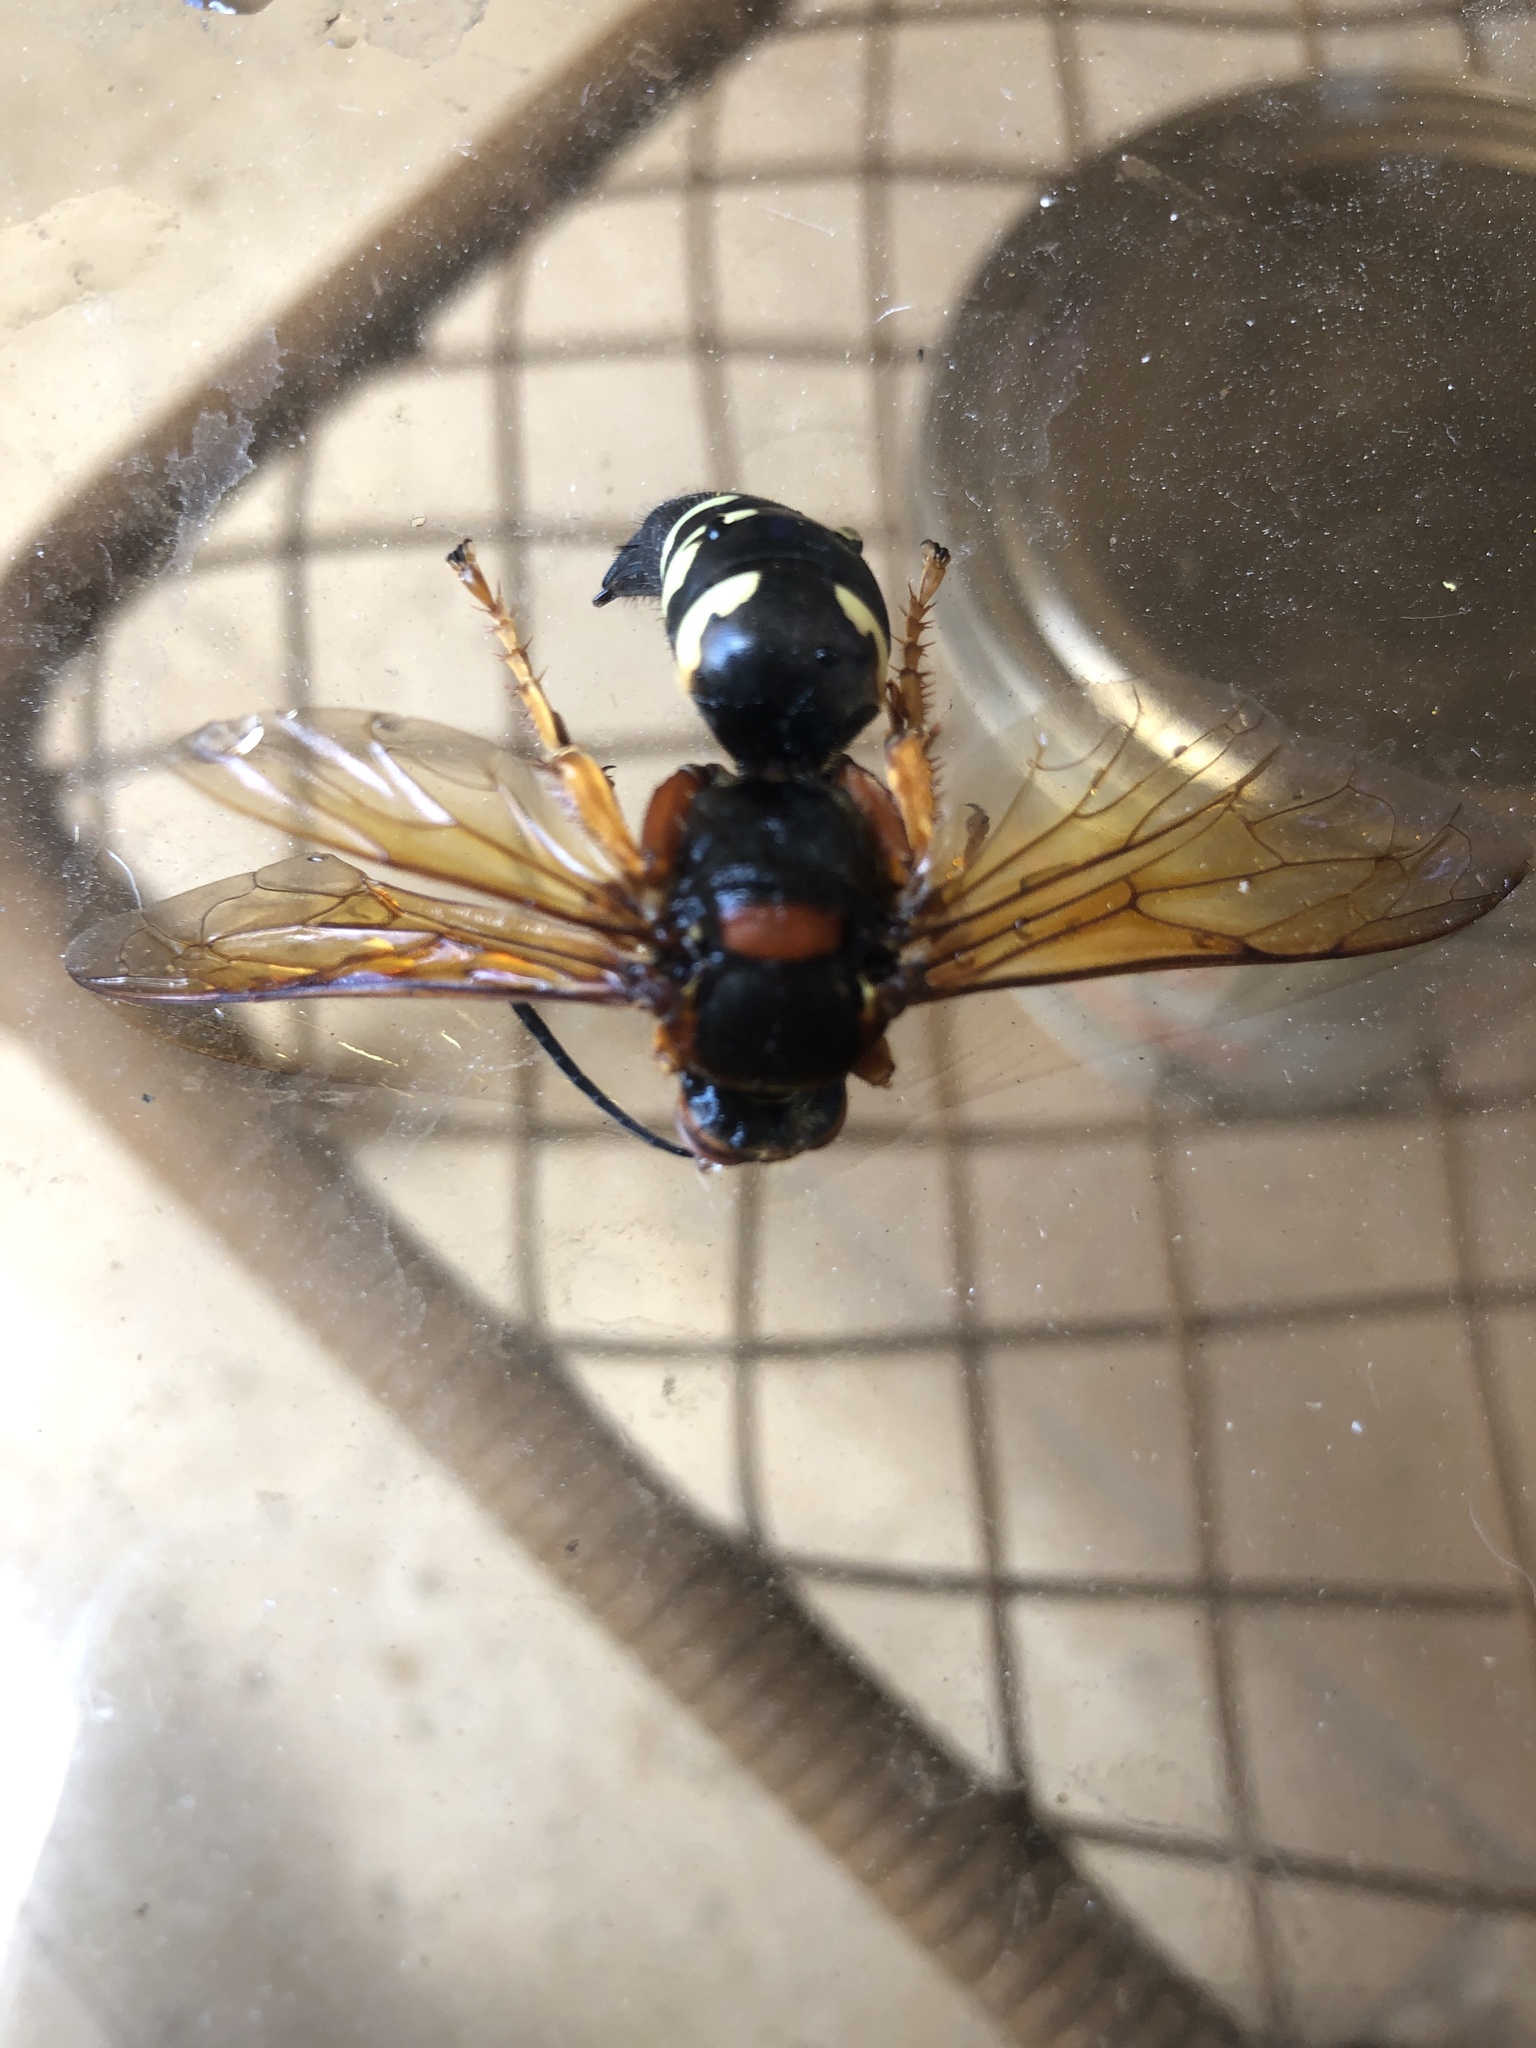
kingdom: Animalia
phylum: Arthropoda
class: Insecta
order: Hymenoptera
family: Crabronidae
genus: Sphecius
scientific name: Sphecius speciosus
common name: Cicada killer
